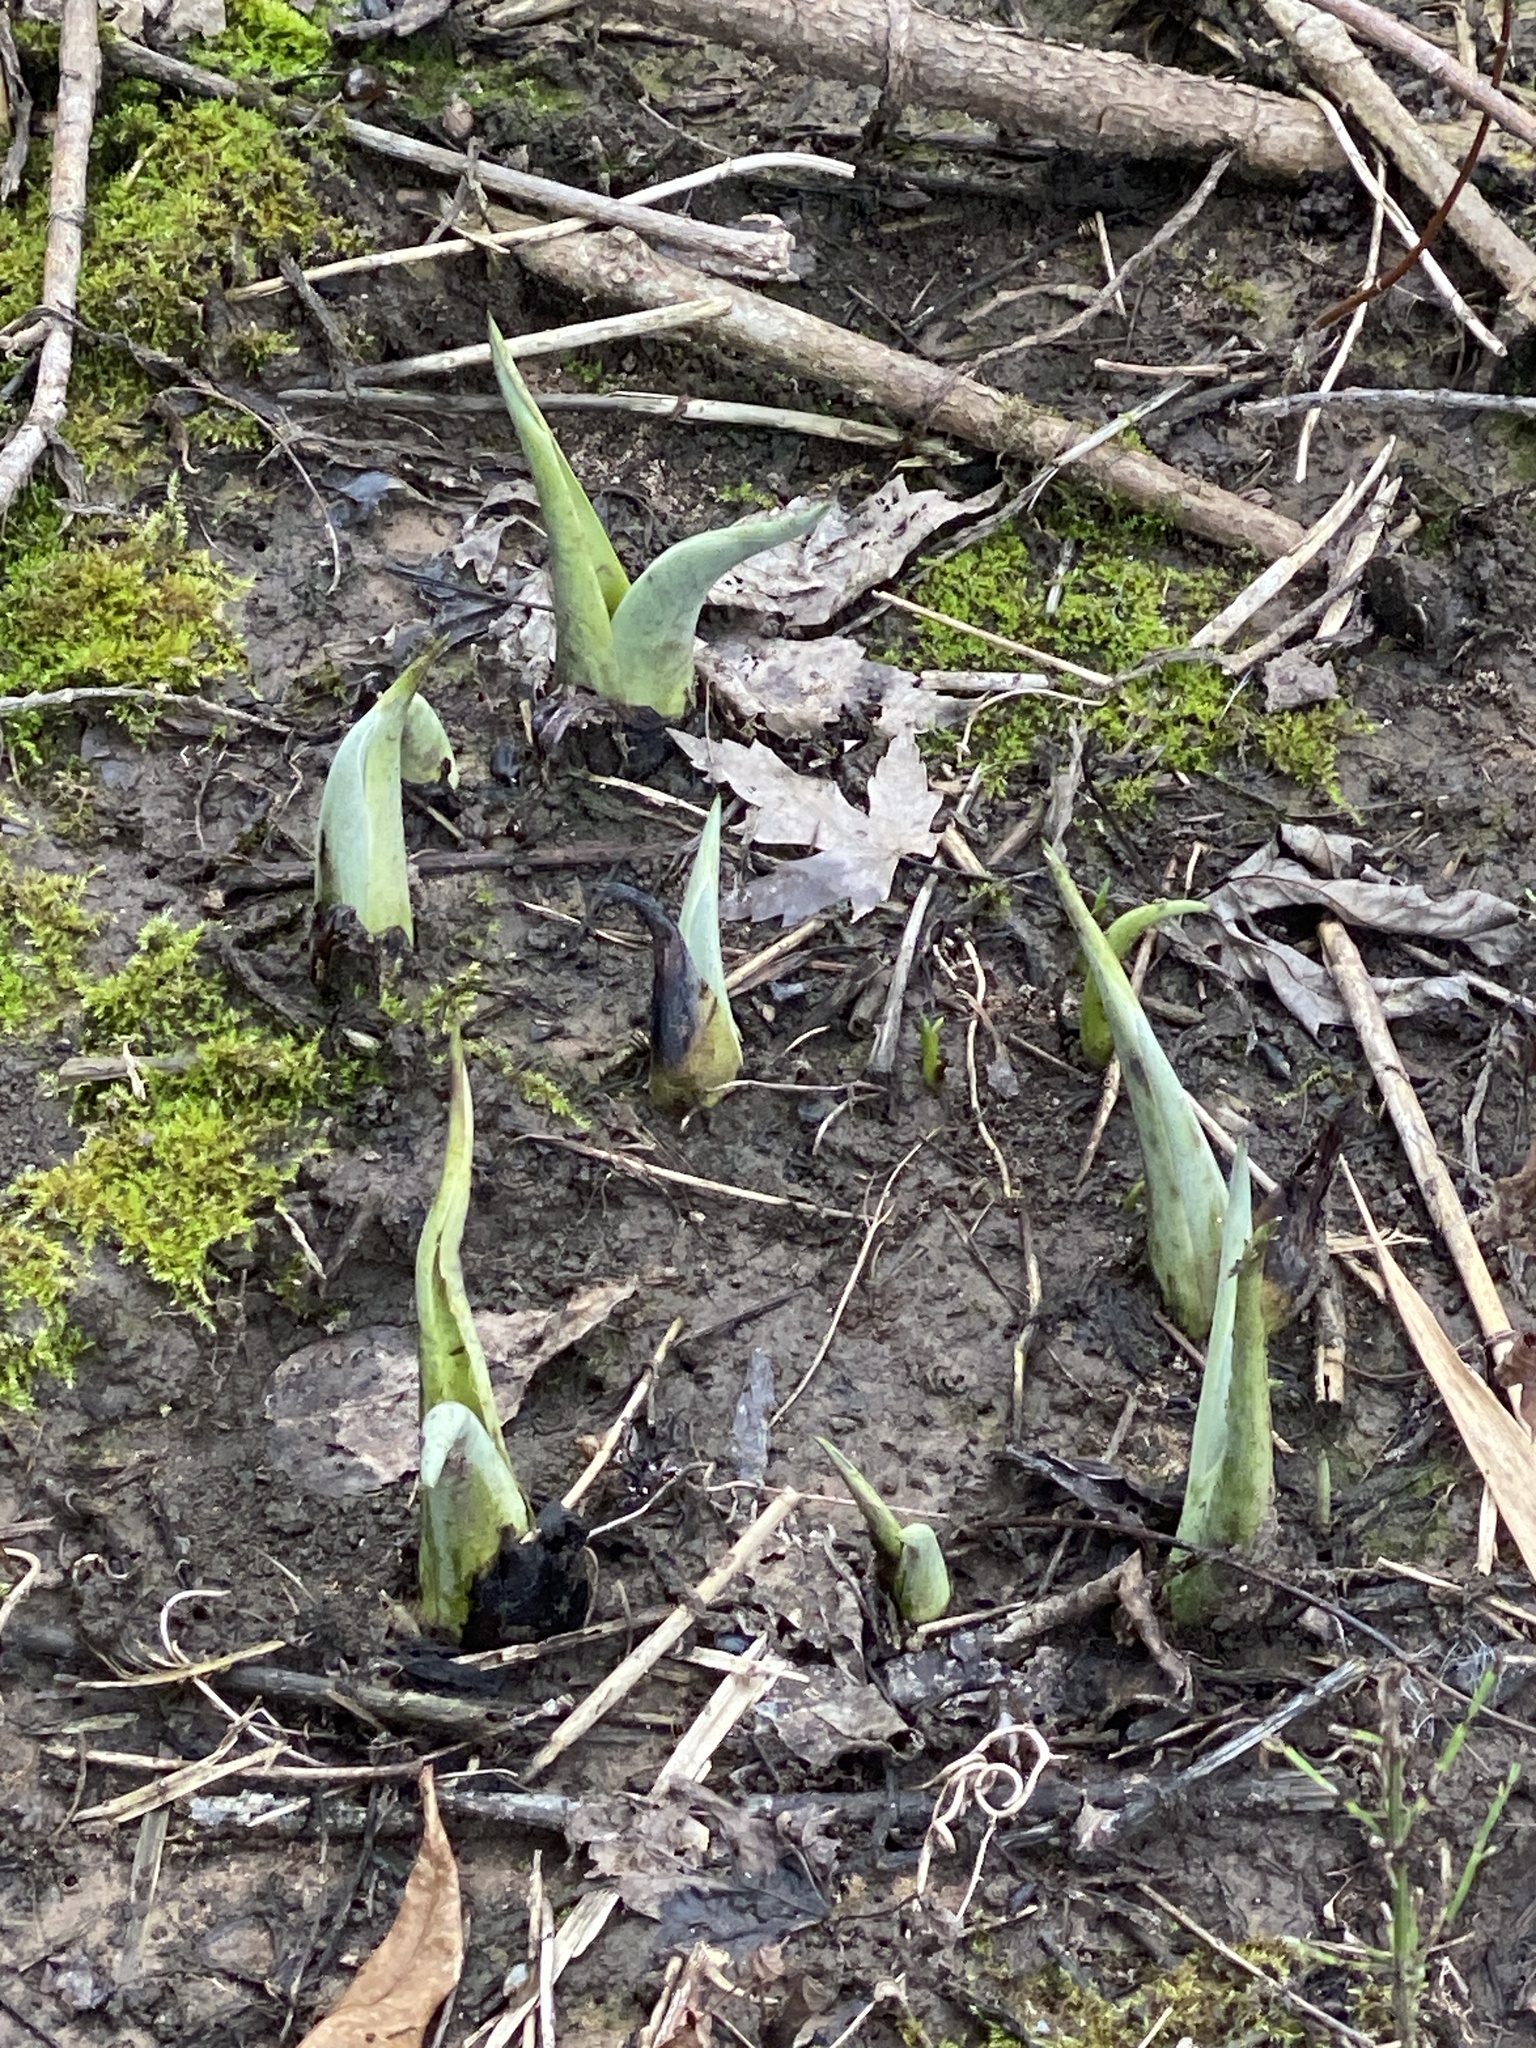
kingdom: Plantae
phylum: Tracheophyta
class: Liliopsida
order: Alismatales
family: Araceae
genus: Symplocarpus
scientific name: Symplocarpus foetidus
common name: Eastern skunk cabbage
